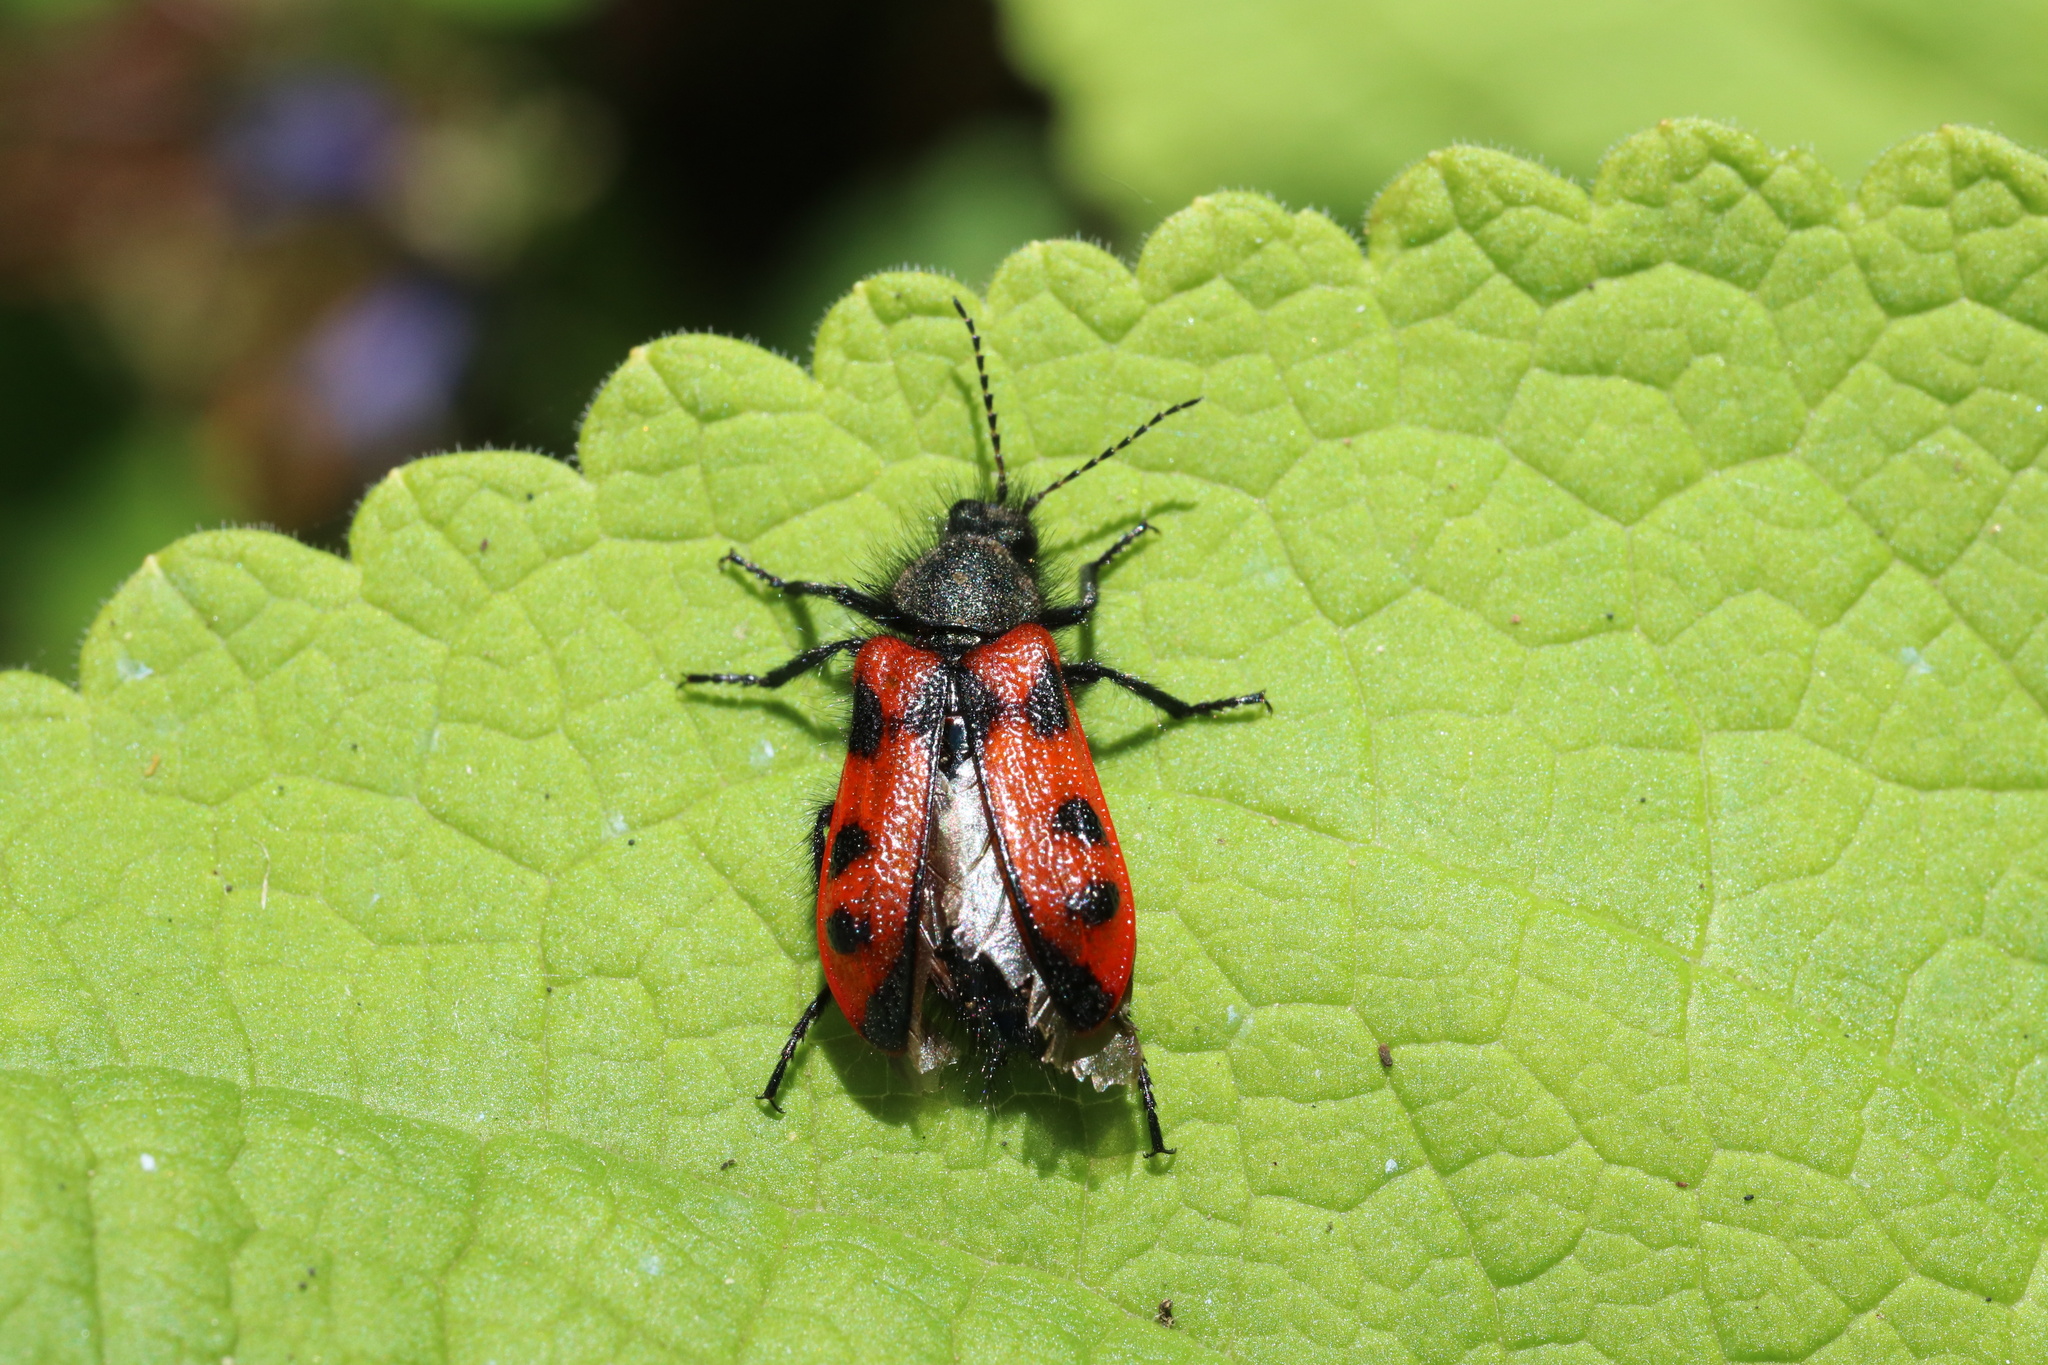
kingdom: Animalia
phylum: Arthropoda
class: Insecta
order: Coleoptera
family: Melyridae
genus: Astylus
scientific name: Astylus
